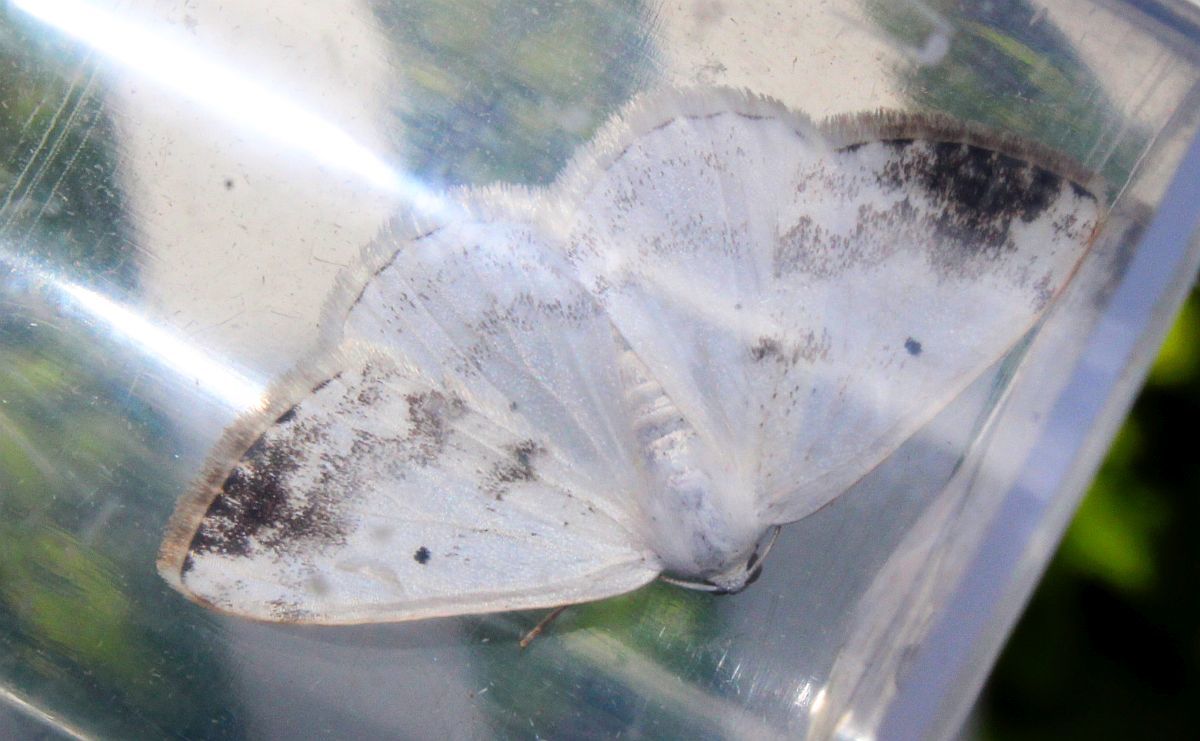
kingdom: Animalia
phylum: Arthropoda
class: Insecta
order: Lepidoptera
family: Geometridae
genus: Lomographa
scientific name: Lomographa temerata
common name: Clouded silver
